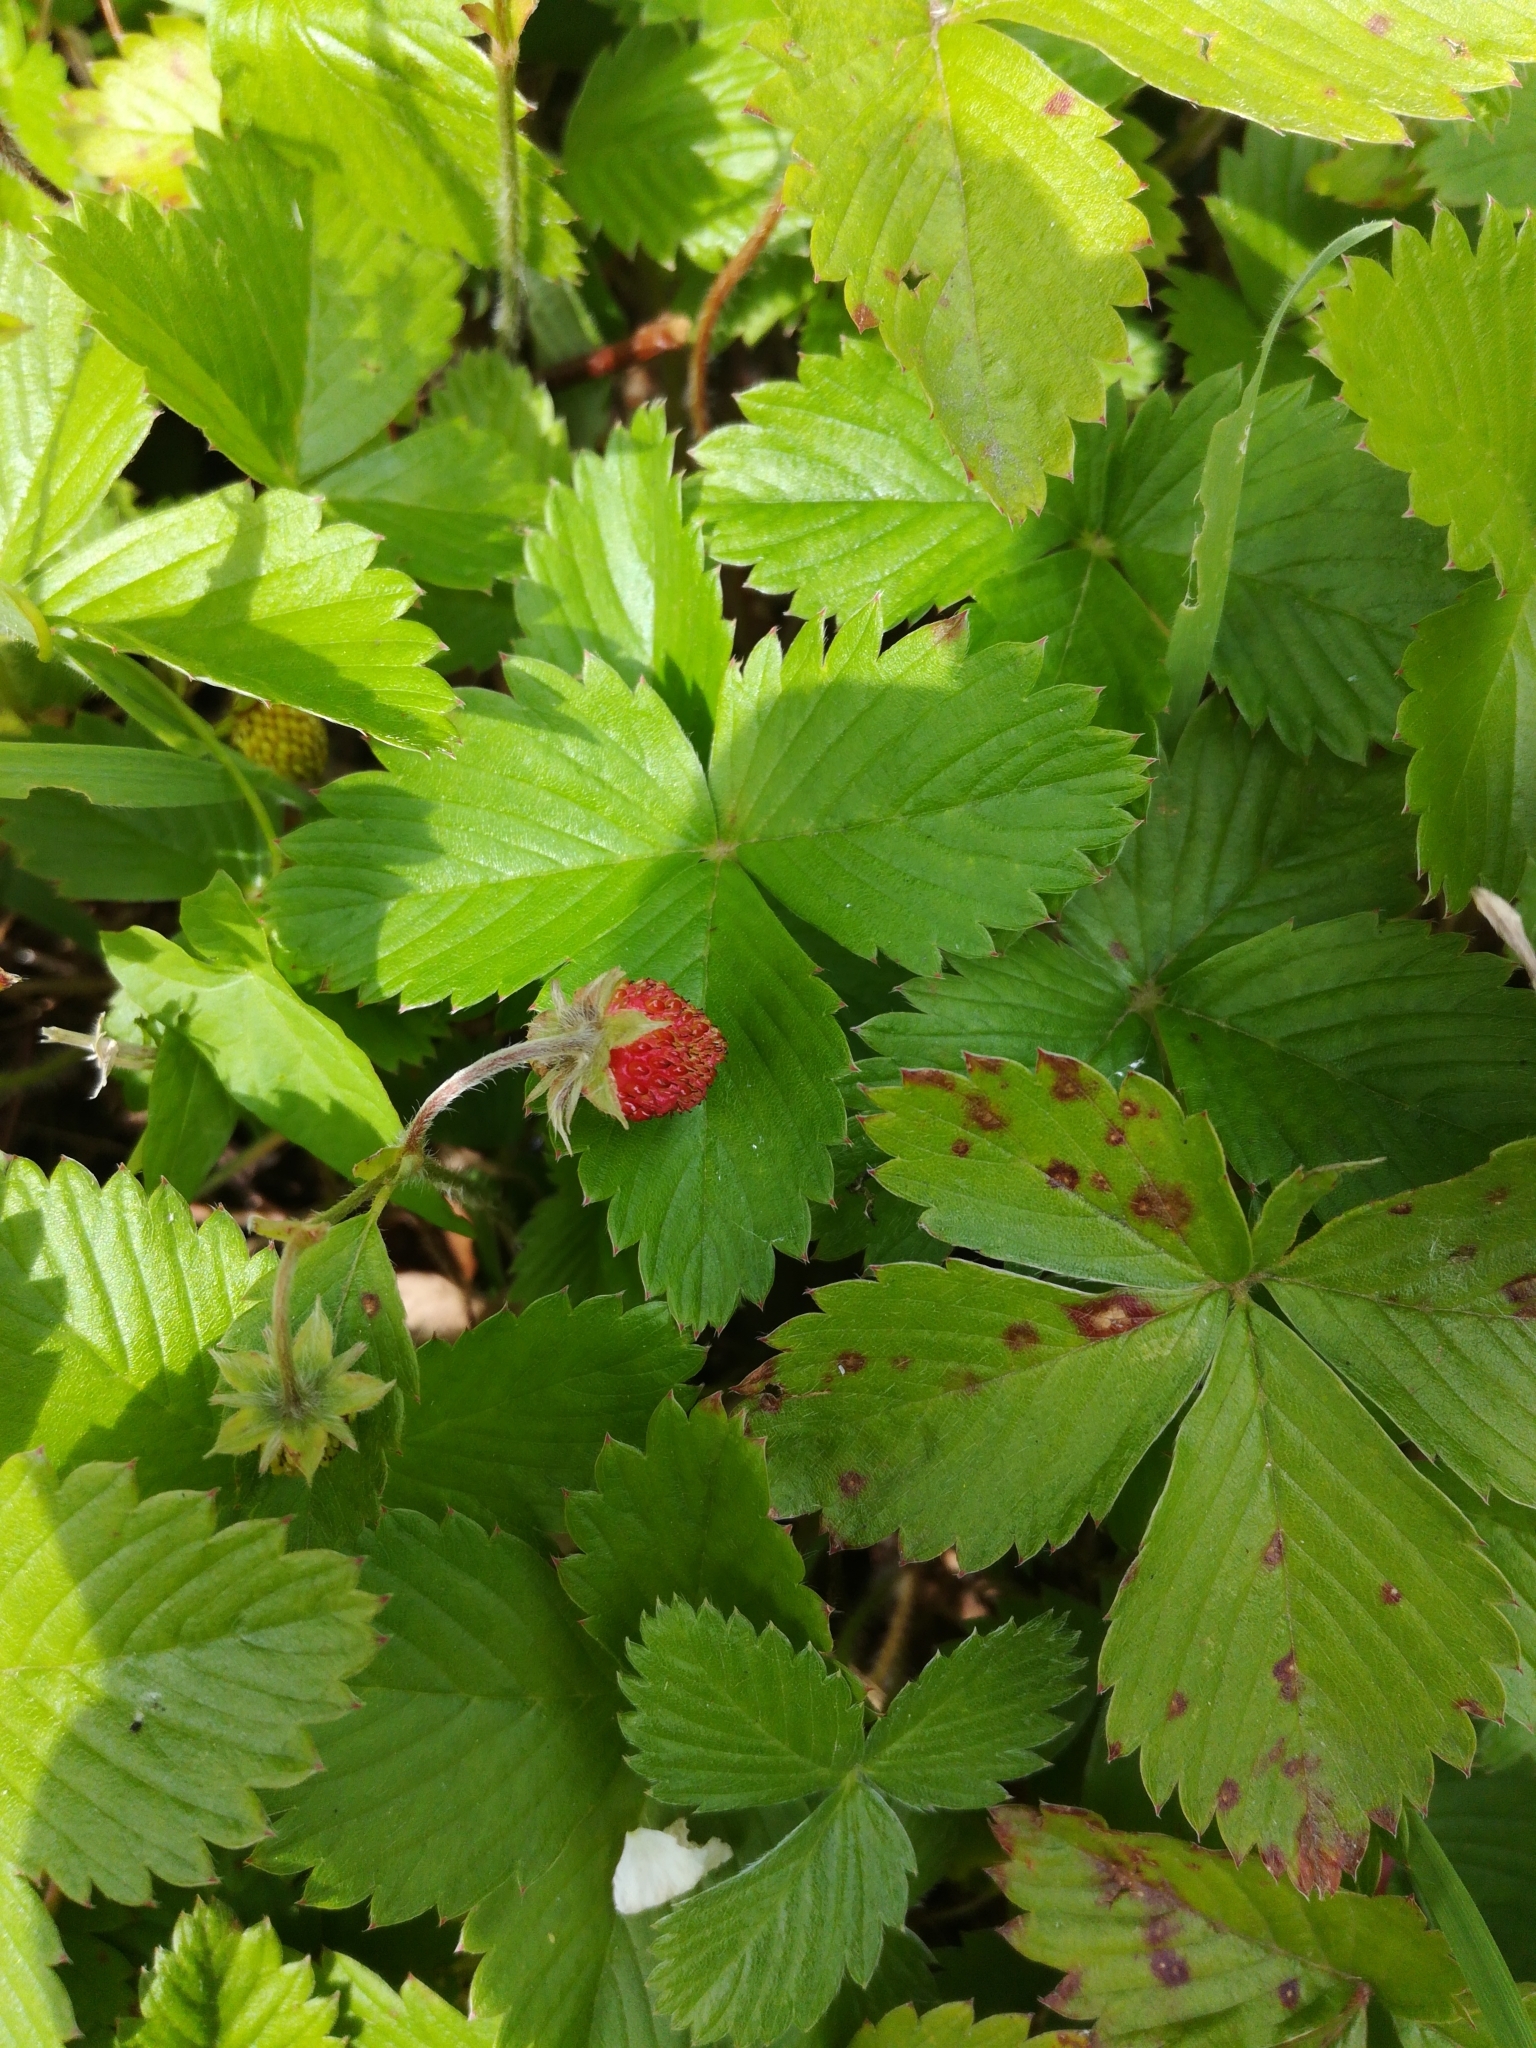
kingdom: Plantae
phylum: Tracheophyta
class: Magnoliopsida
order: Rosales
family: Rosaceae
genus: Fragaria
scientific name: Fragaria vesca
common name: Wild strawberry
